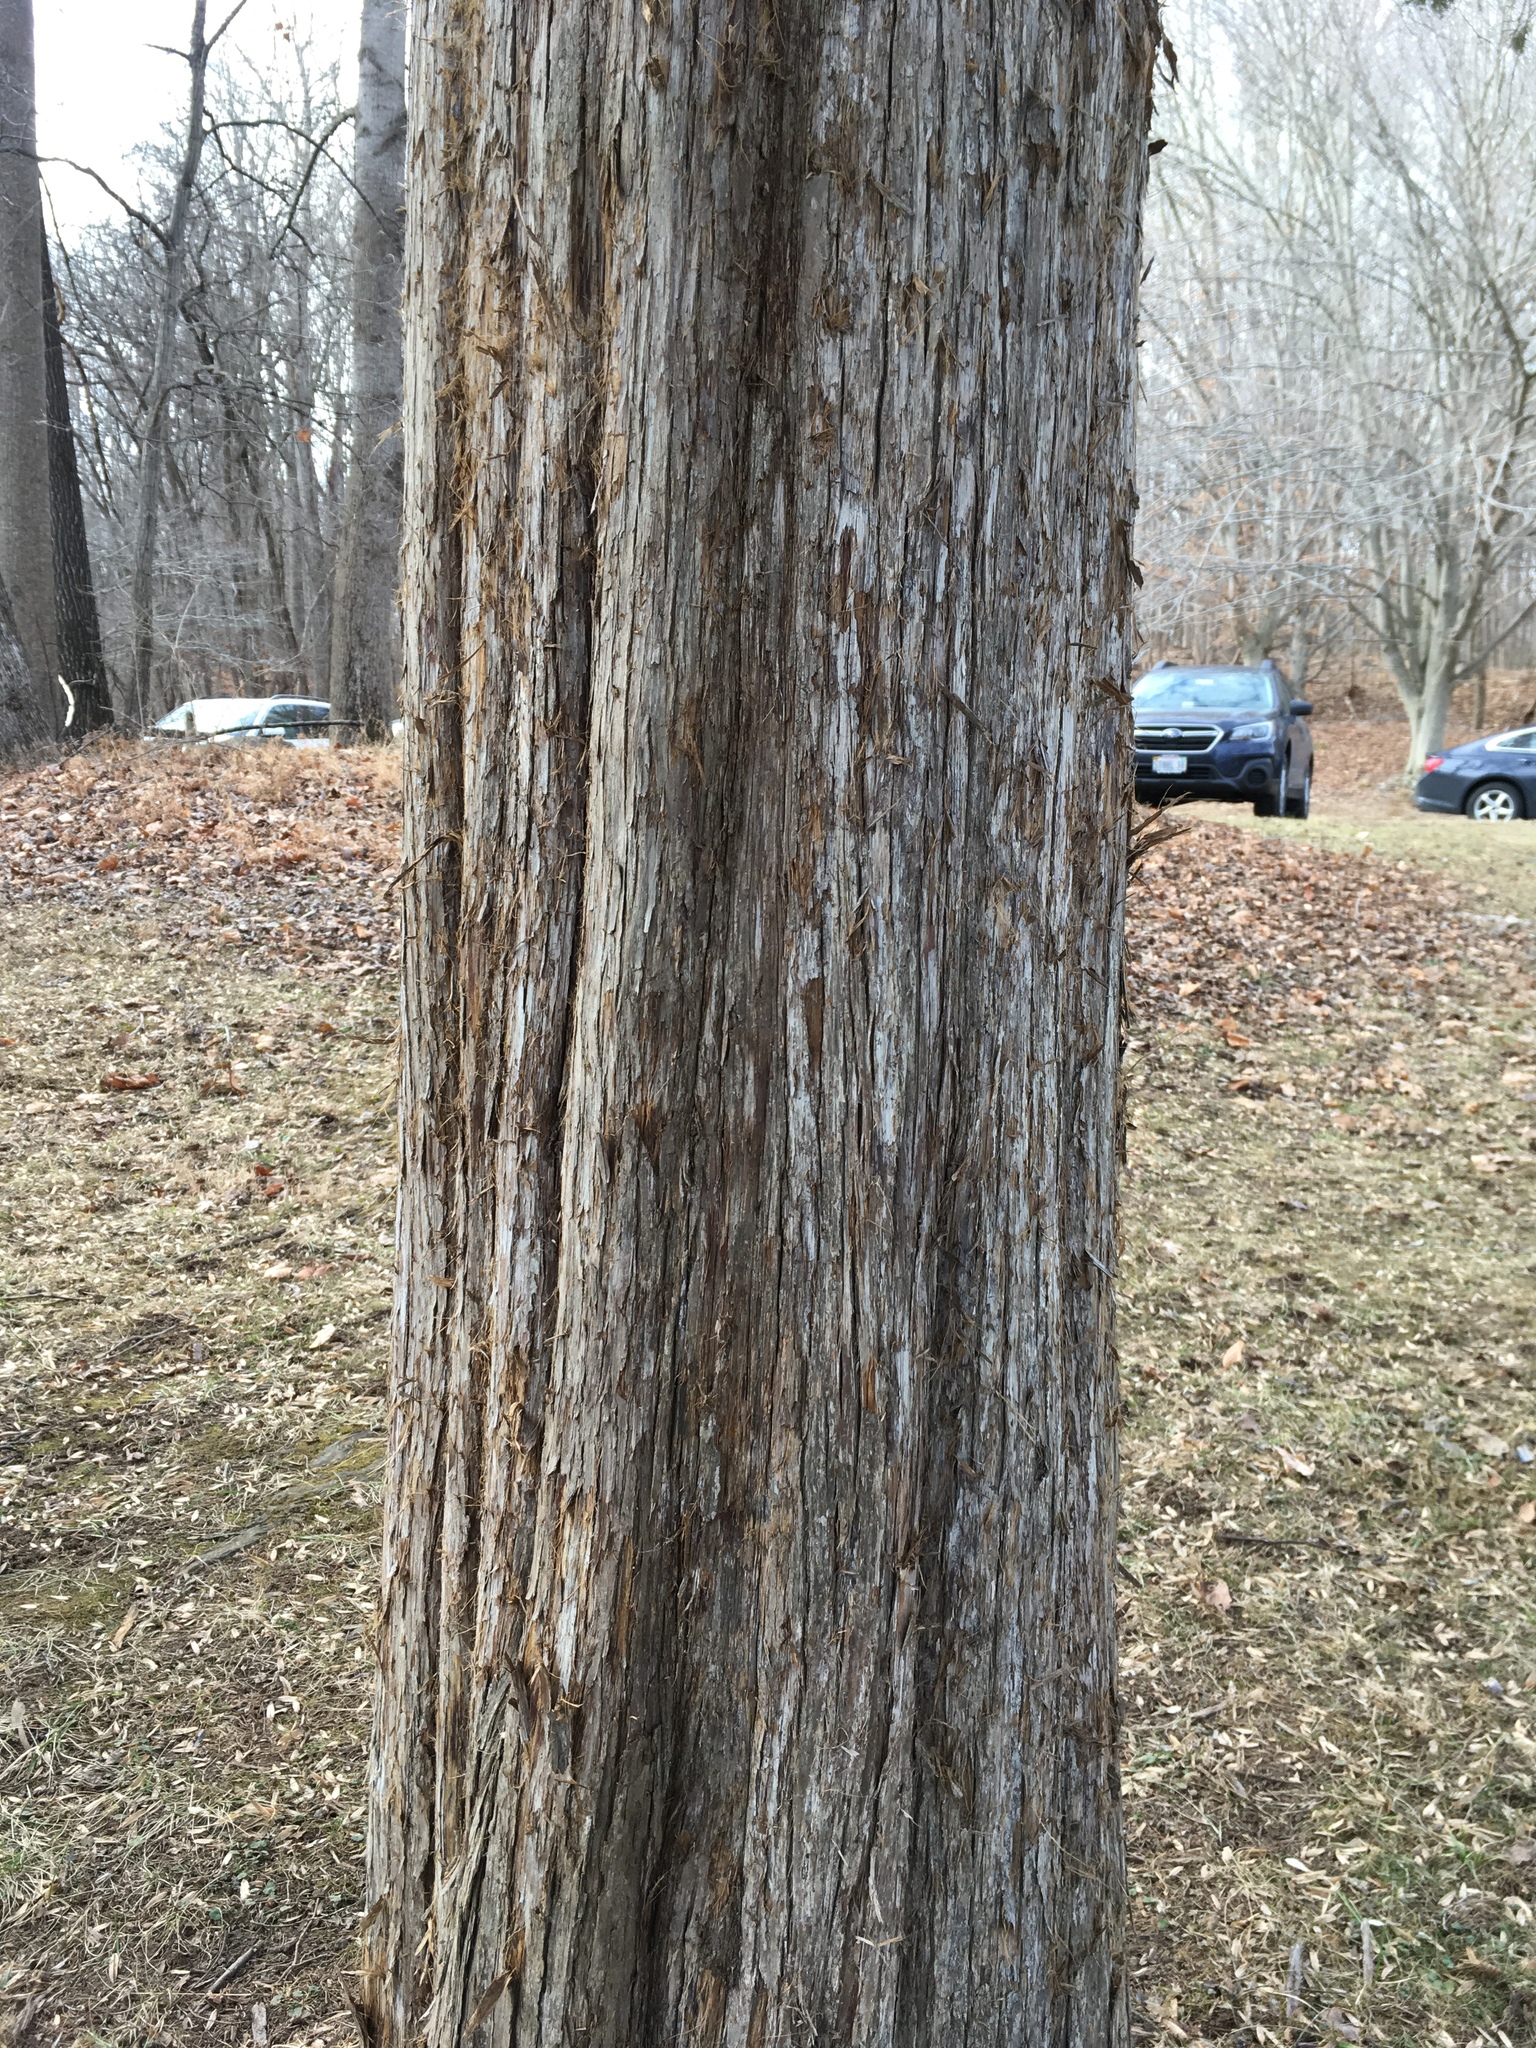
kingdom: Plantae
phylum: Tracheophyta
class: Pinopsida
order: Pinales
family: Cupressaceae
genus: Juniperus
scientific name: Juniperus virginiana
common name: Red juniper
